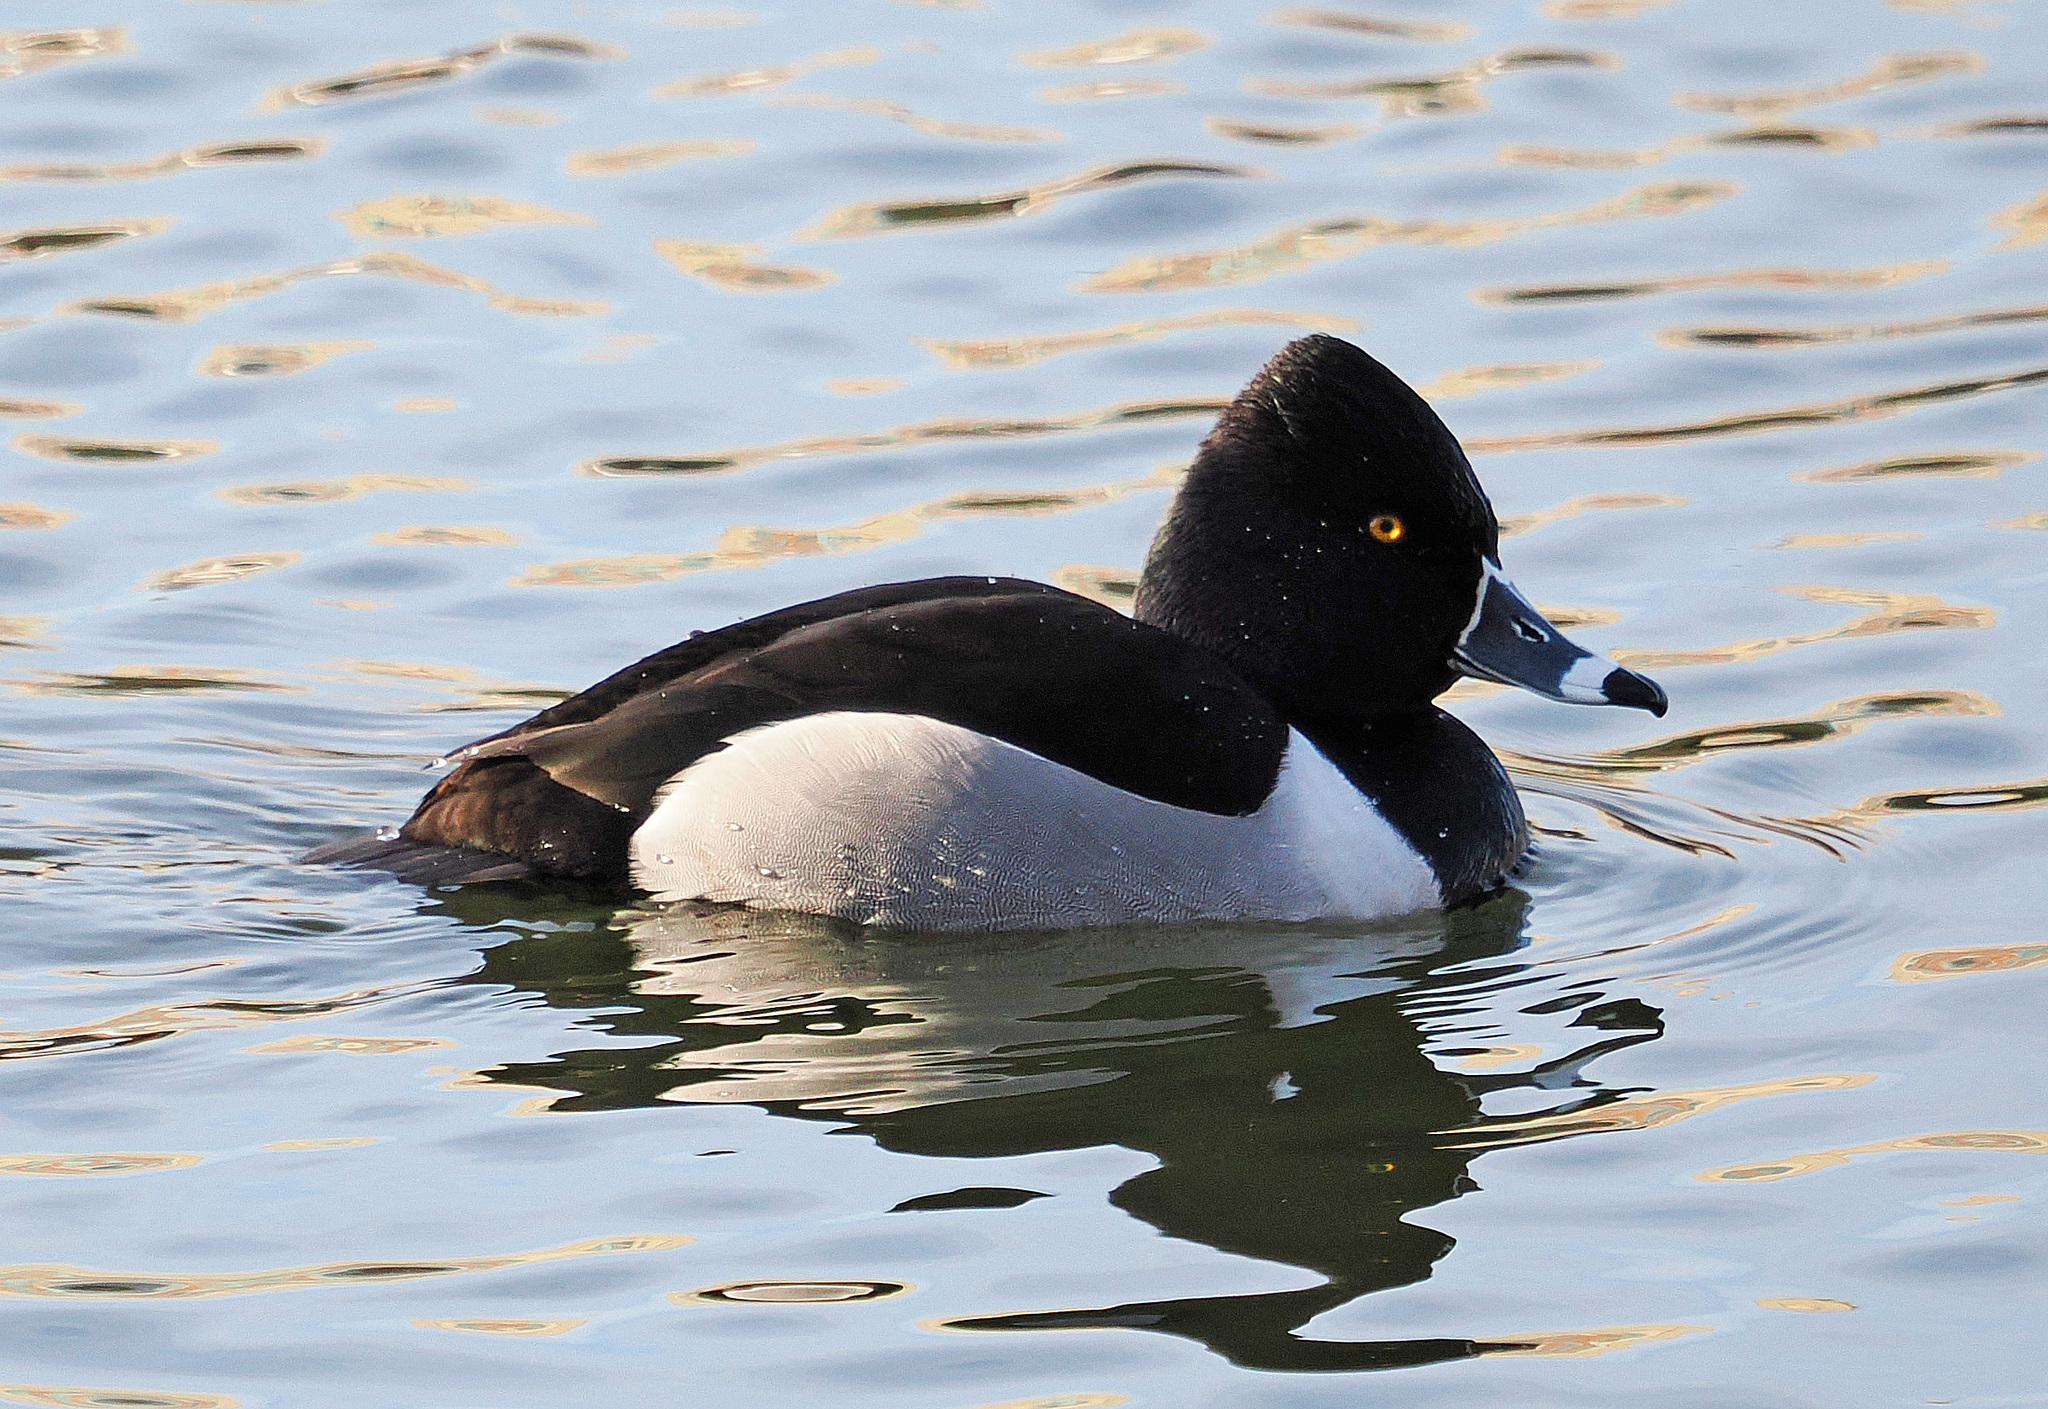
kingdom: Animalia
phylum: Chordata
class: Aves
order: Anseriformes
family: Anatidae
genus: Aythya
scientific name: Aythya collaris
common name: Ring-necked duck
